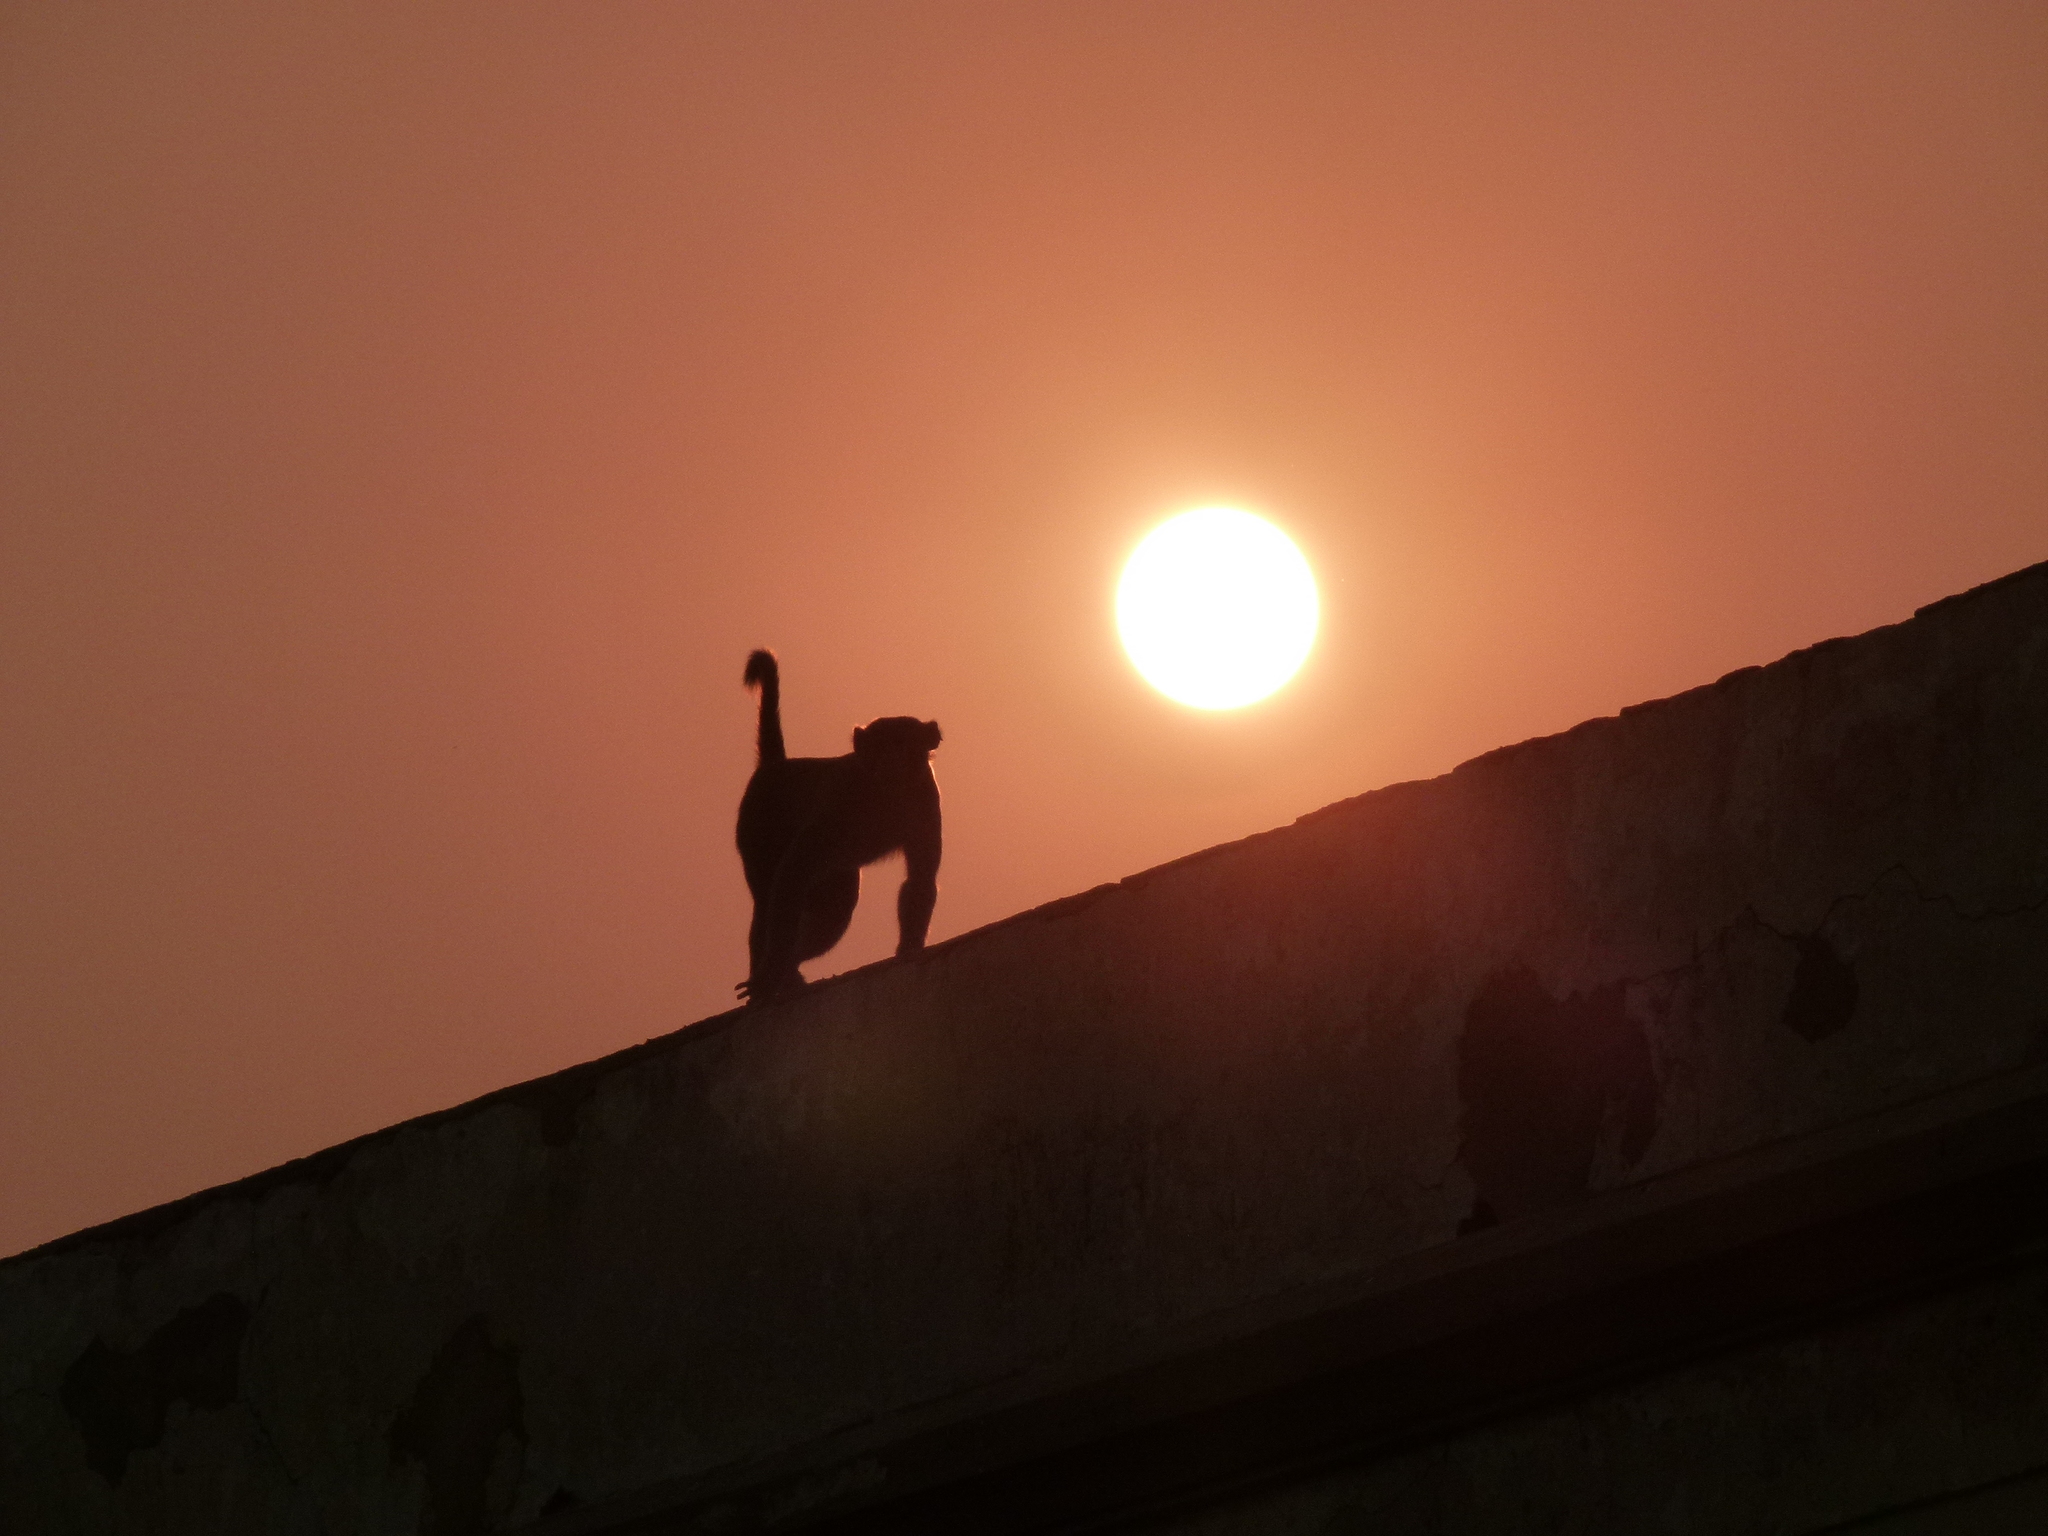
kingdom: Animalia
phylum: Chordata
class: Mammalia
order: Primates
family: Cercopithecidae
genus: Macaca
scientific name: Macaca mulatta
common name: Rhesus monkey
